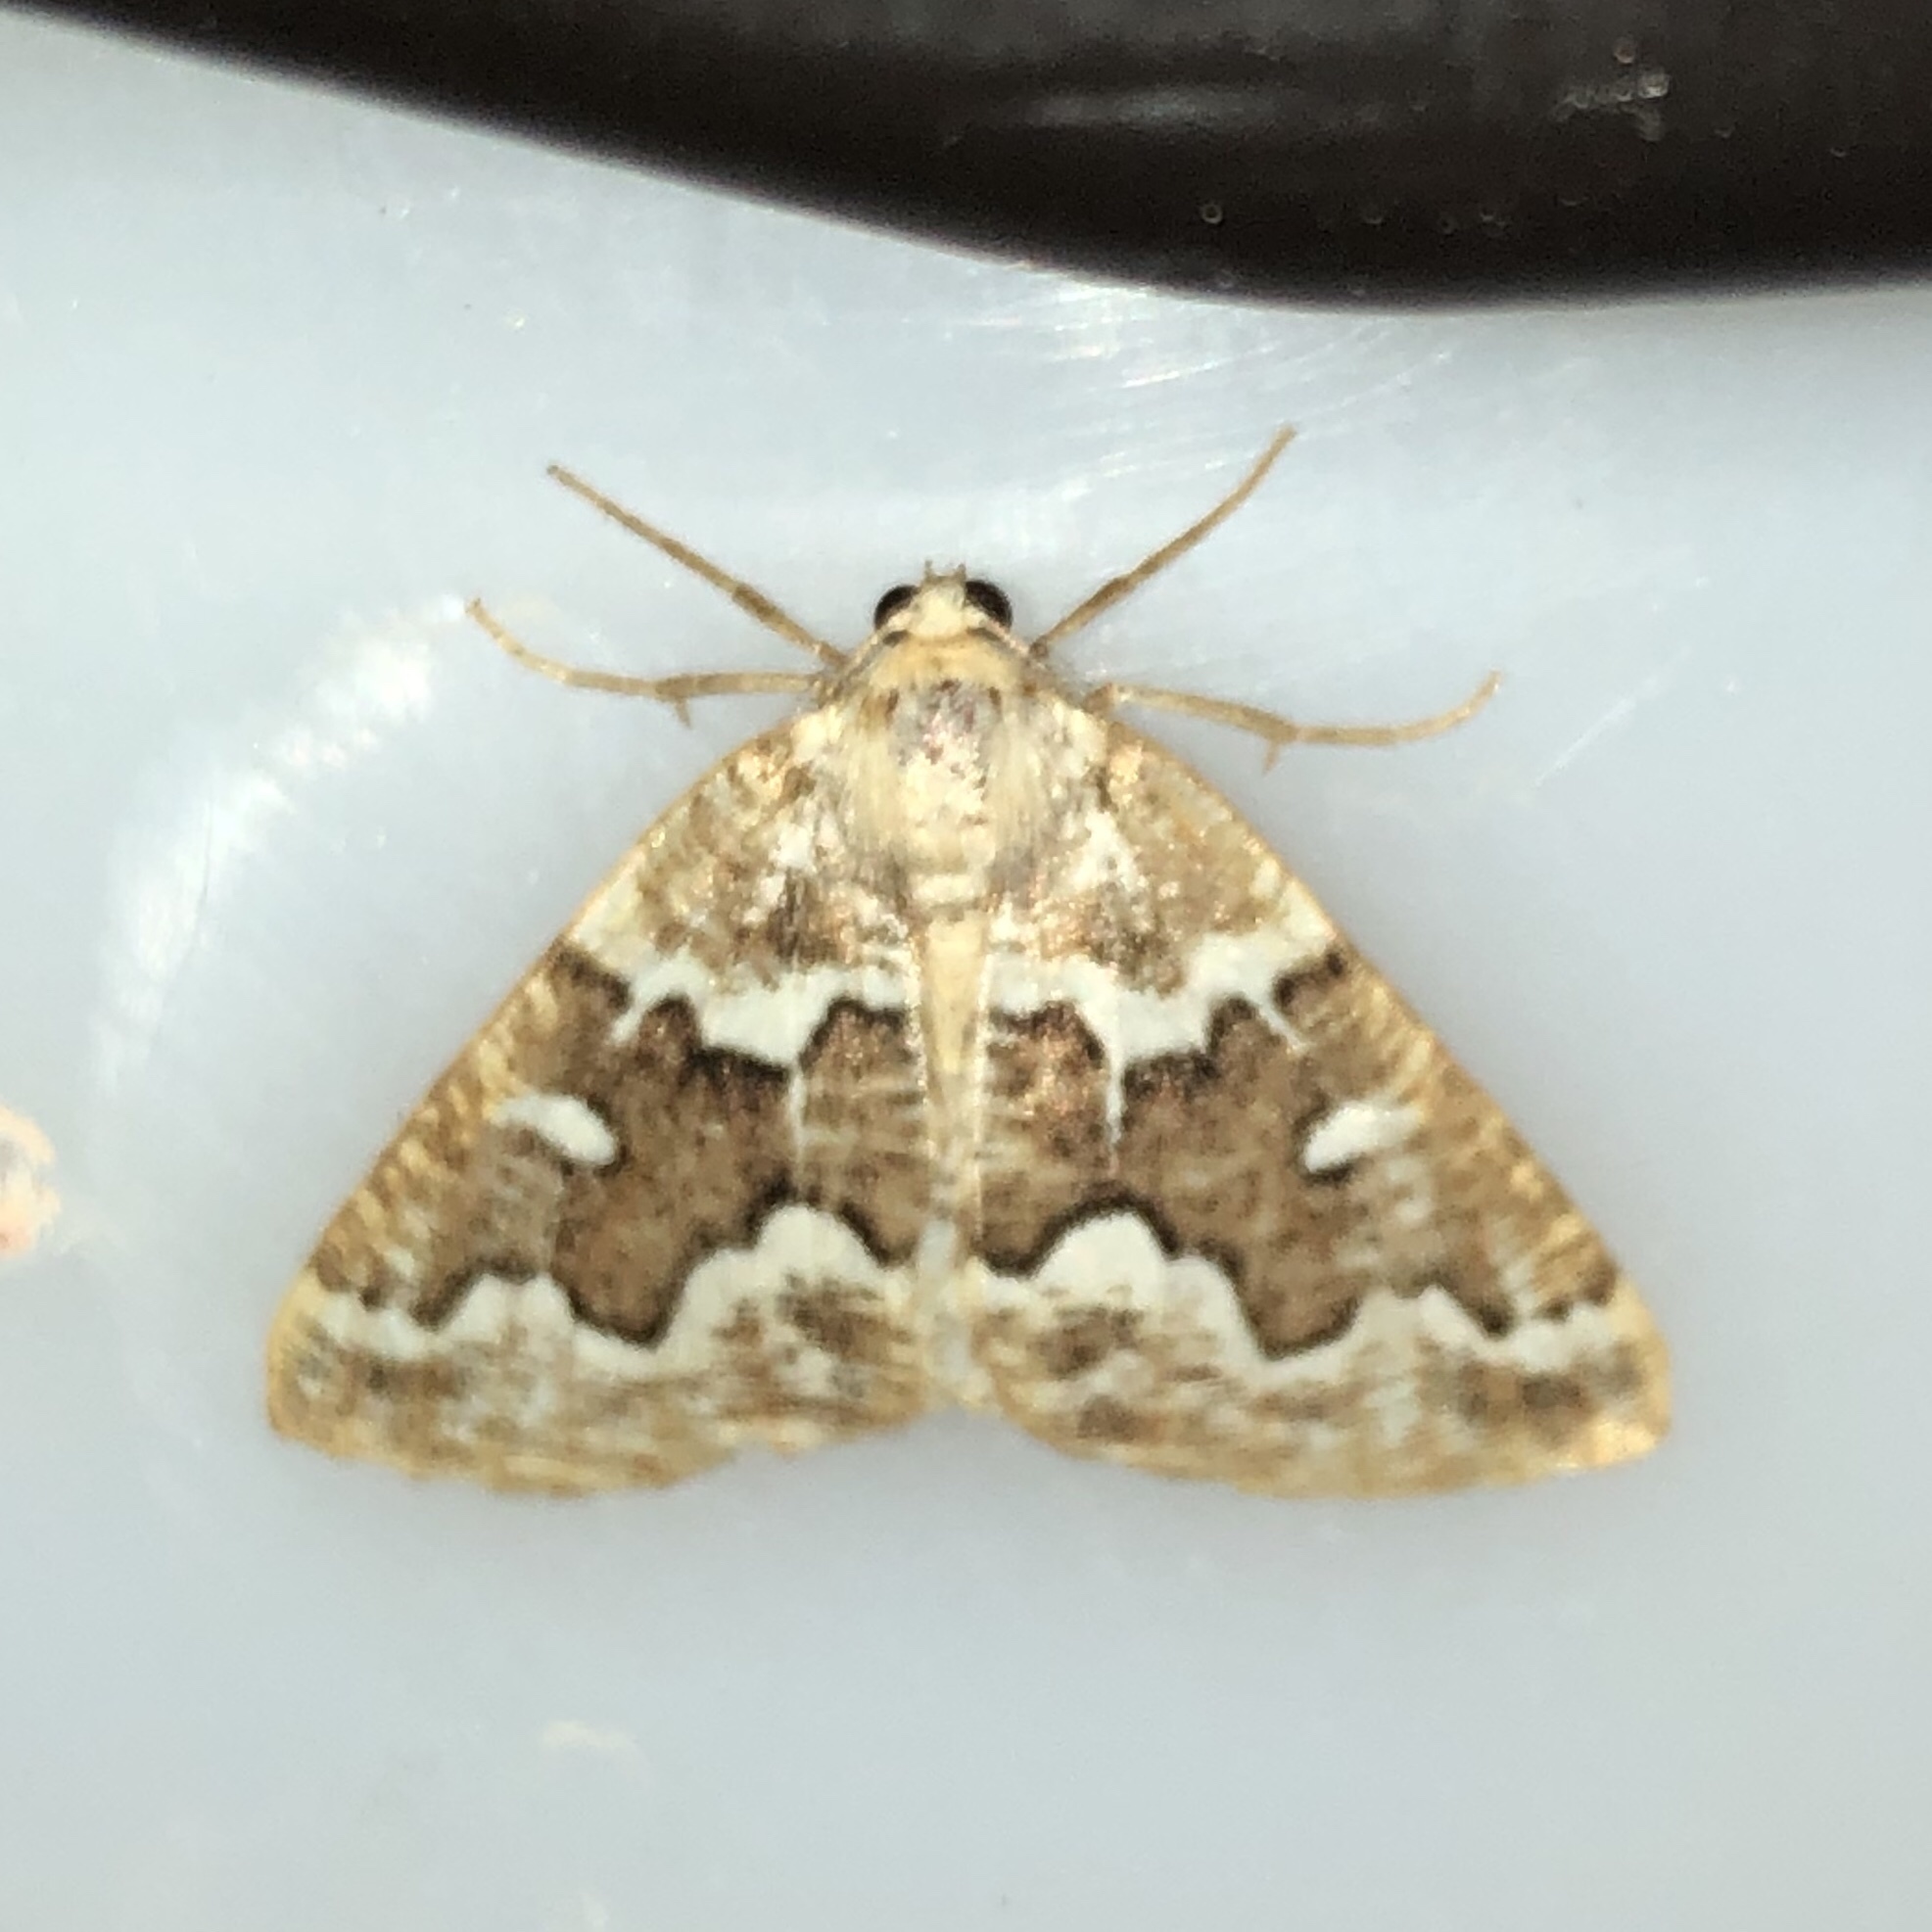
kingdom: Animalia
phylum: Arthropoda
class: Insecta
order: Lepidoptera
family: Geometridae
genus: Caripeta
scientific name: Caripeta divisata
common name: Gray spruce looper
